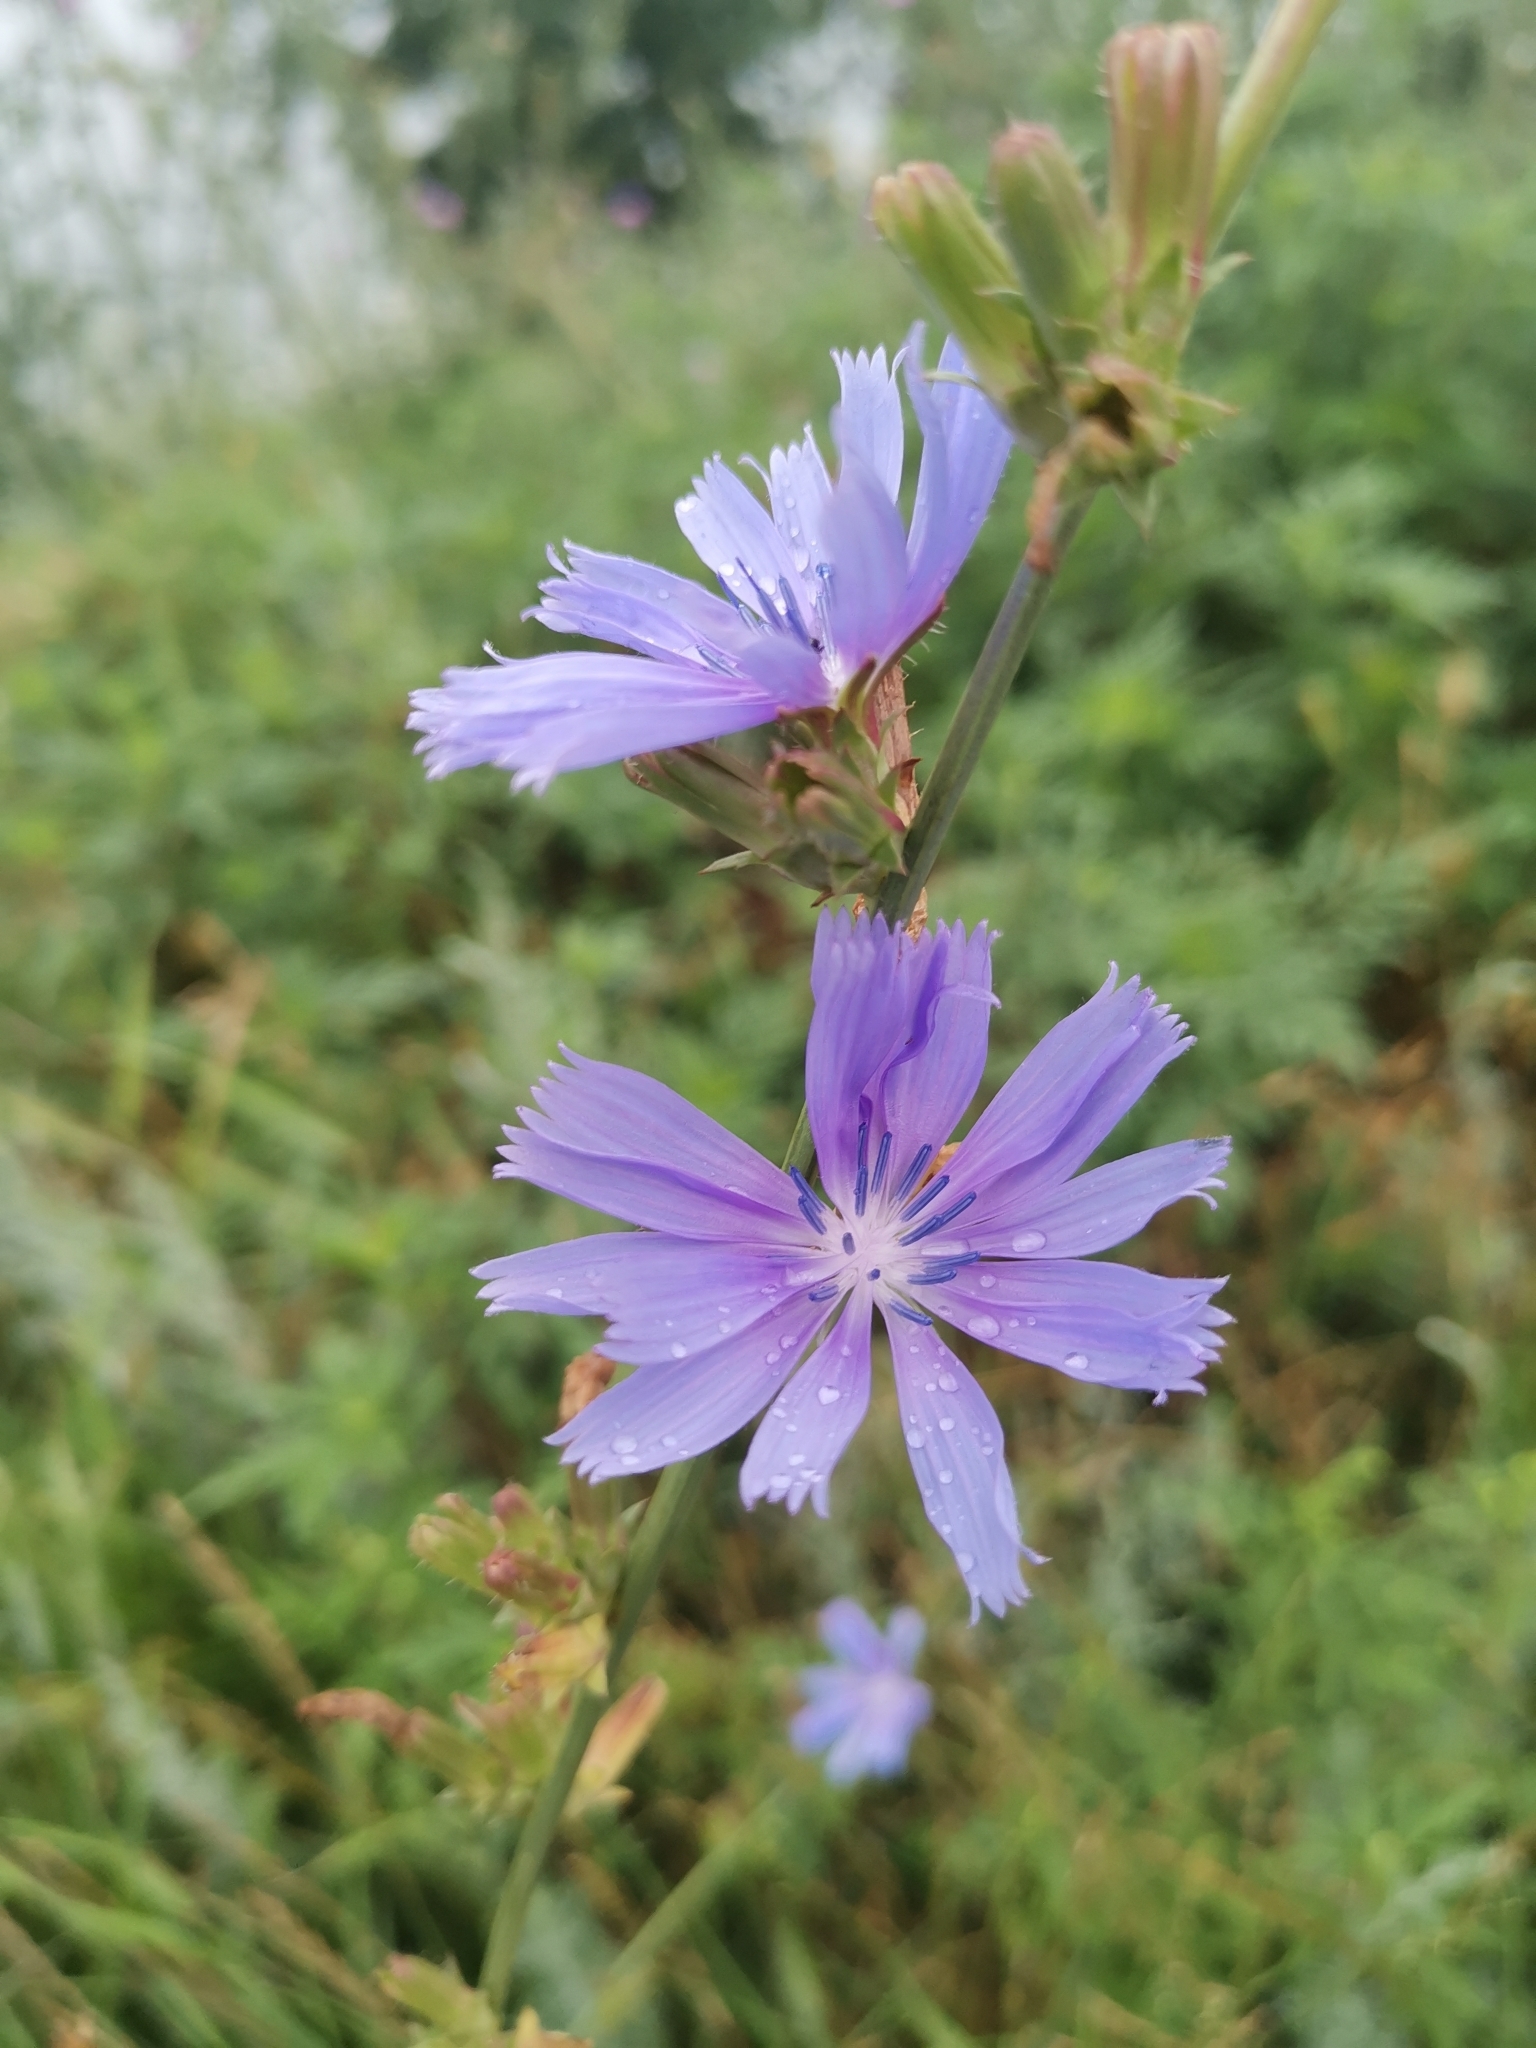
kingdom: Plantae
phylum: Tracheophyta
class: Magnoliopsida
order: Asterales
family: Asteraceae
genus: Cichorium
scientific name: Cichorium intybus
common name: Chicory
